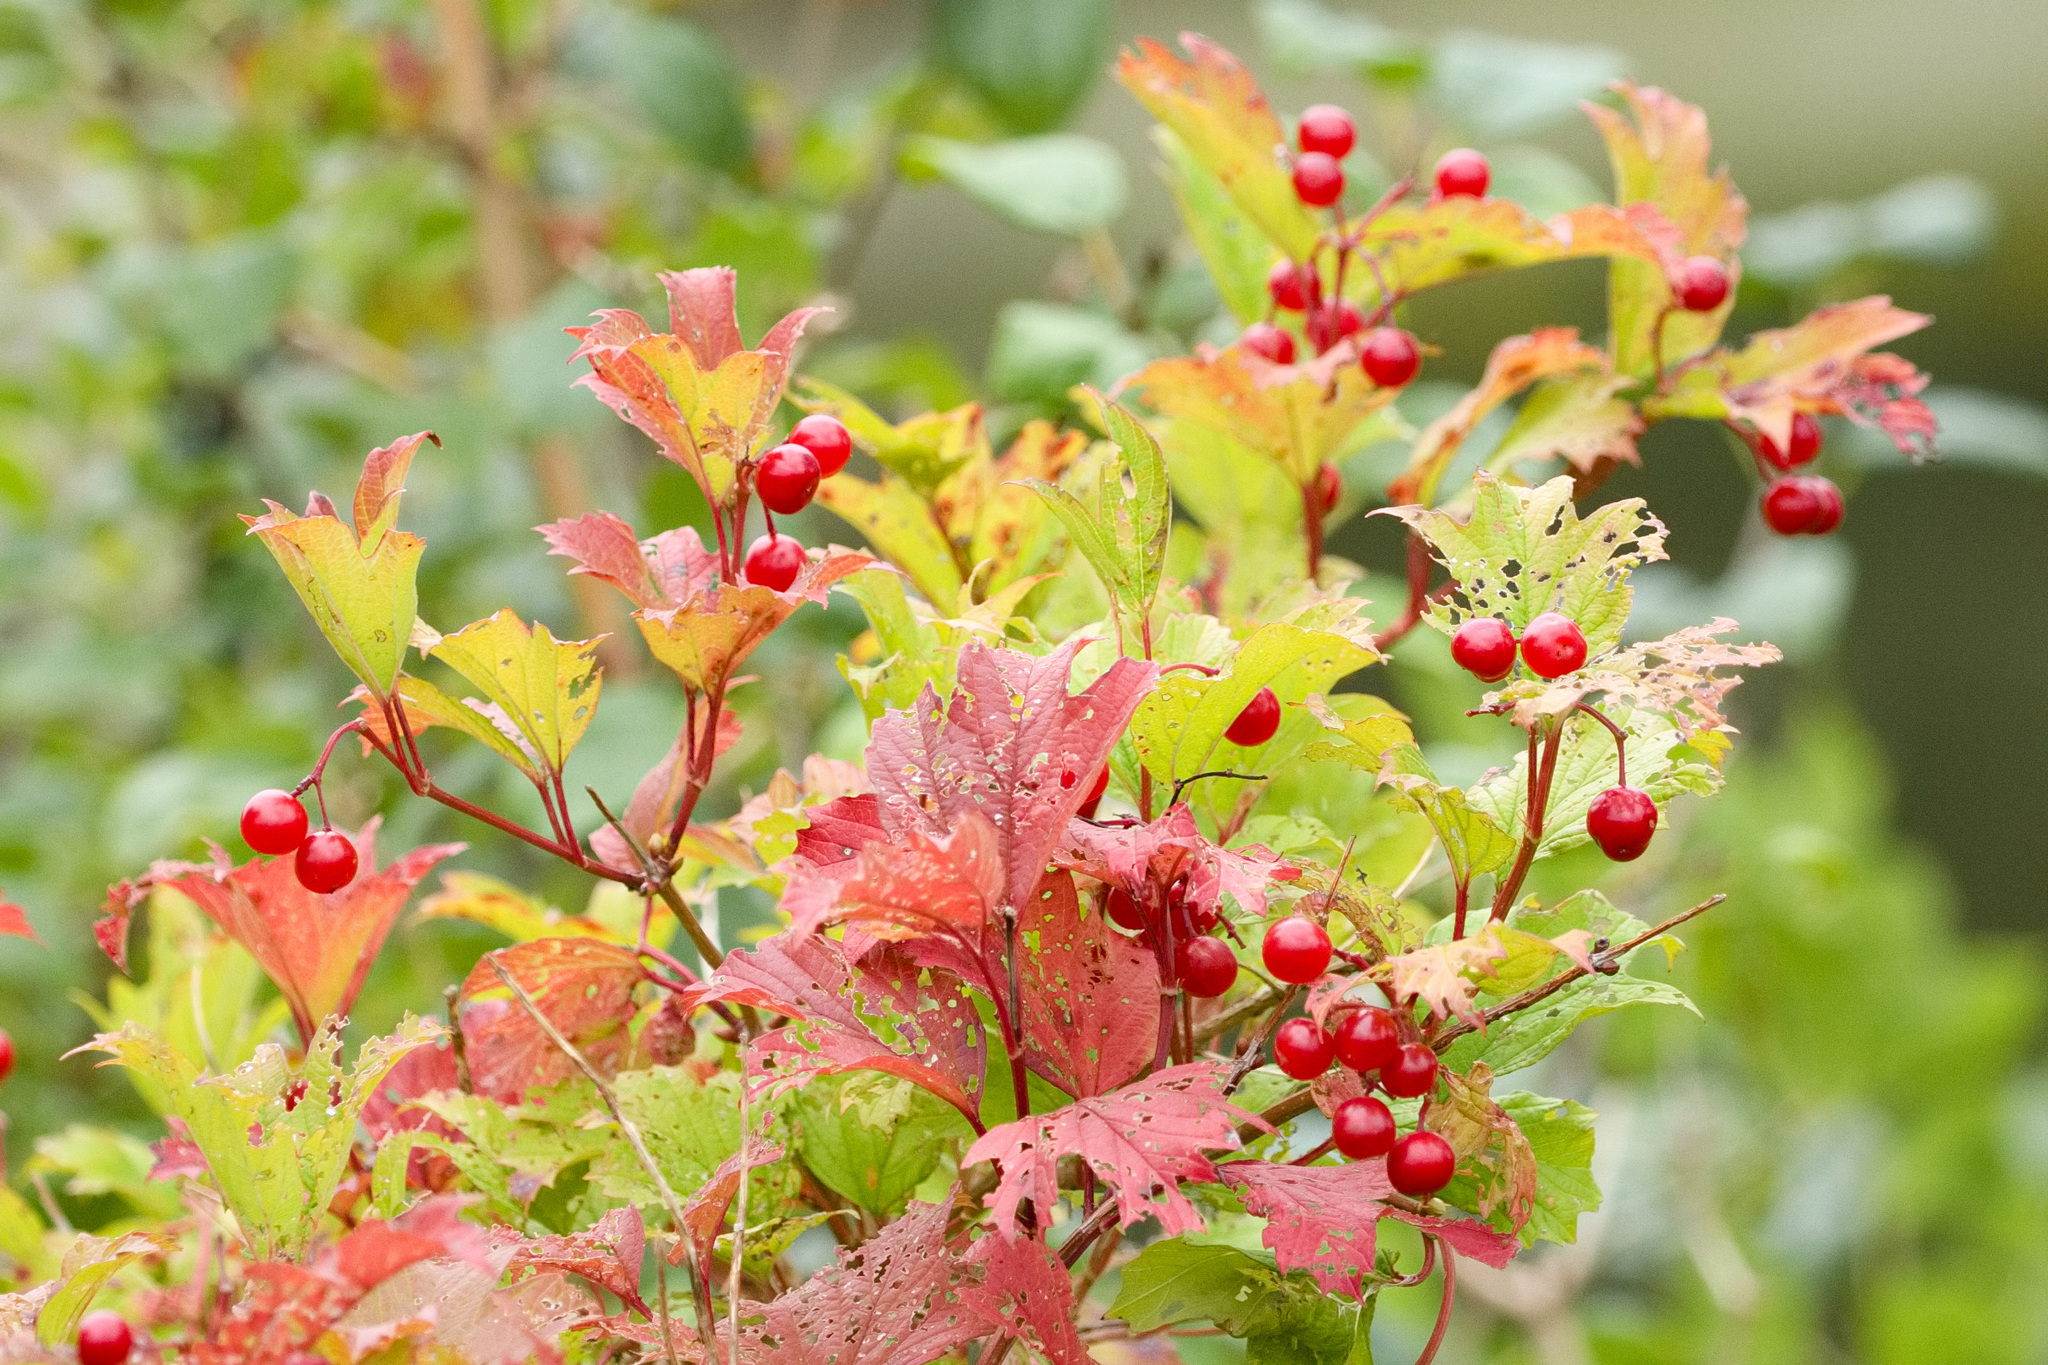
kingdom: Plantae
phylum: Tracheophyta
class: Magnoliopsida
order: Dipsacales
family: Viburnaceae
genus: Viburnum
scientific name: Viburnum opulus
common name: Guelder-rose
